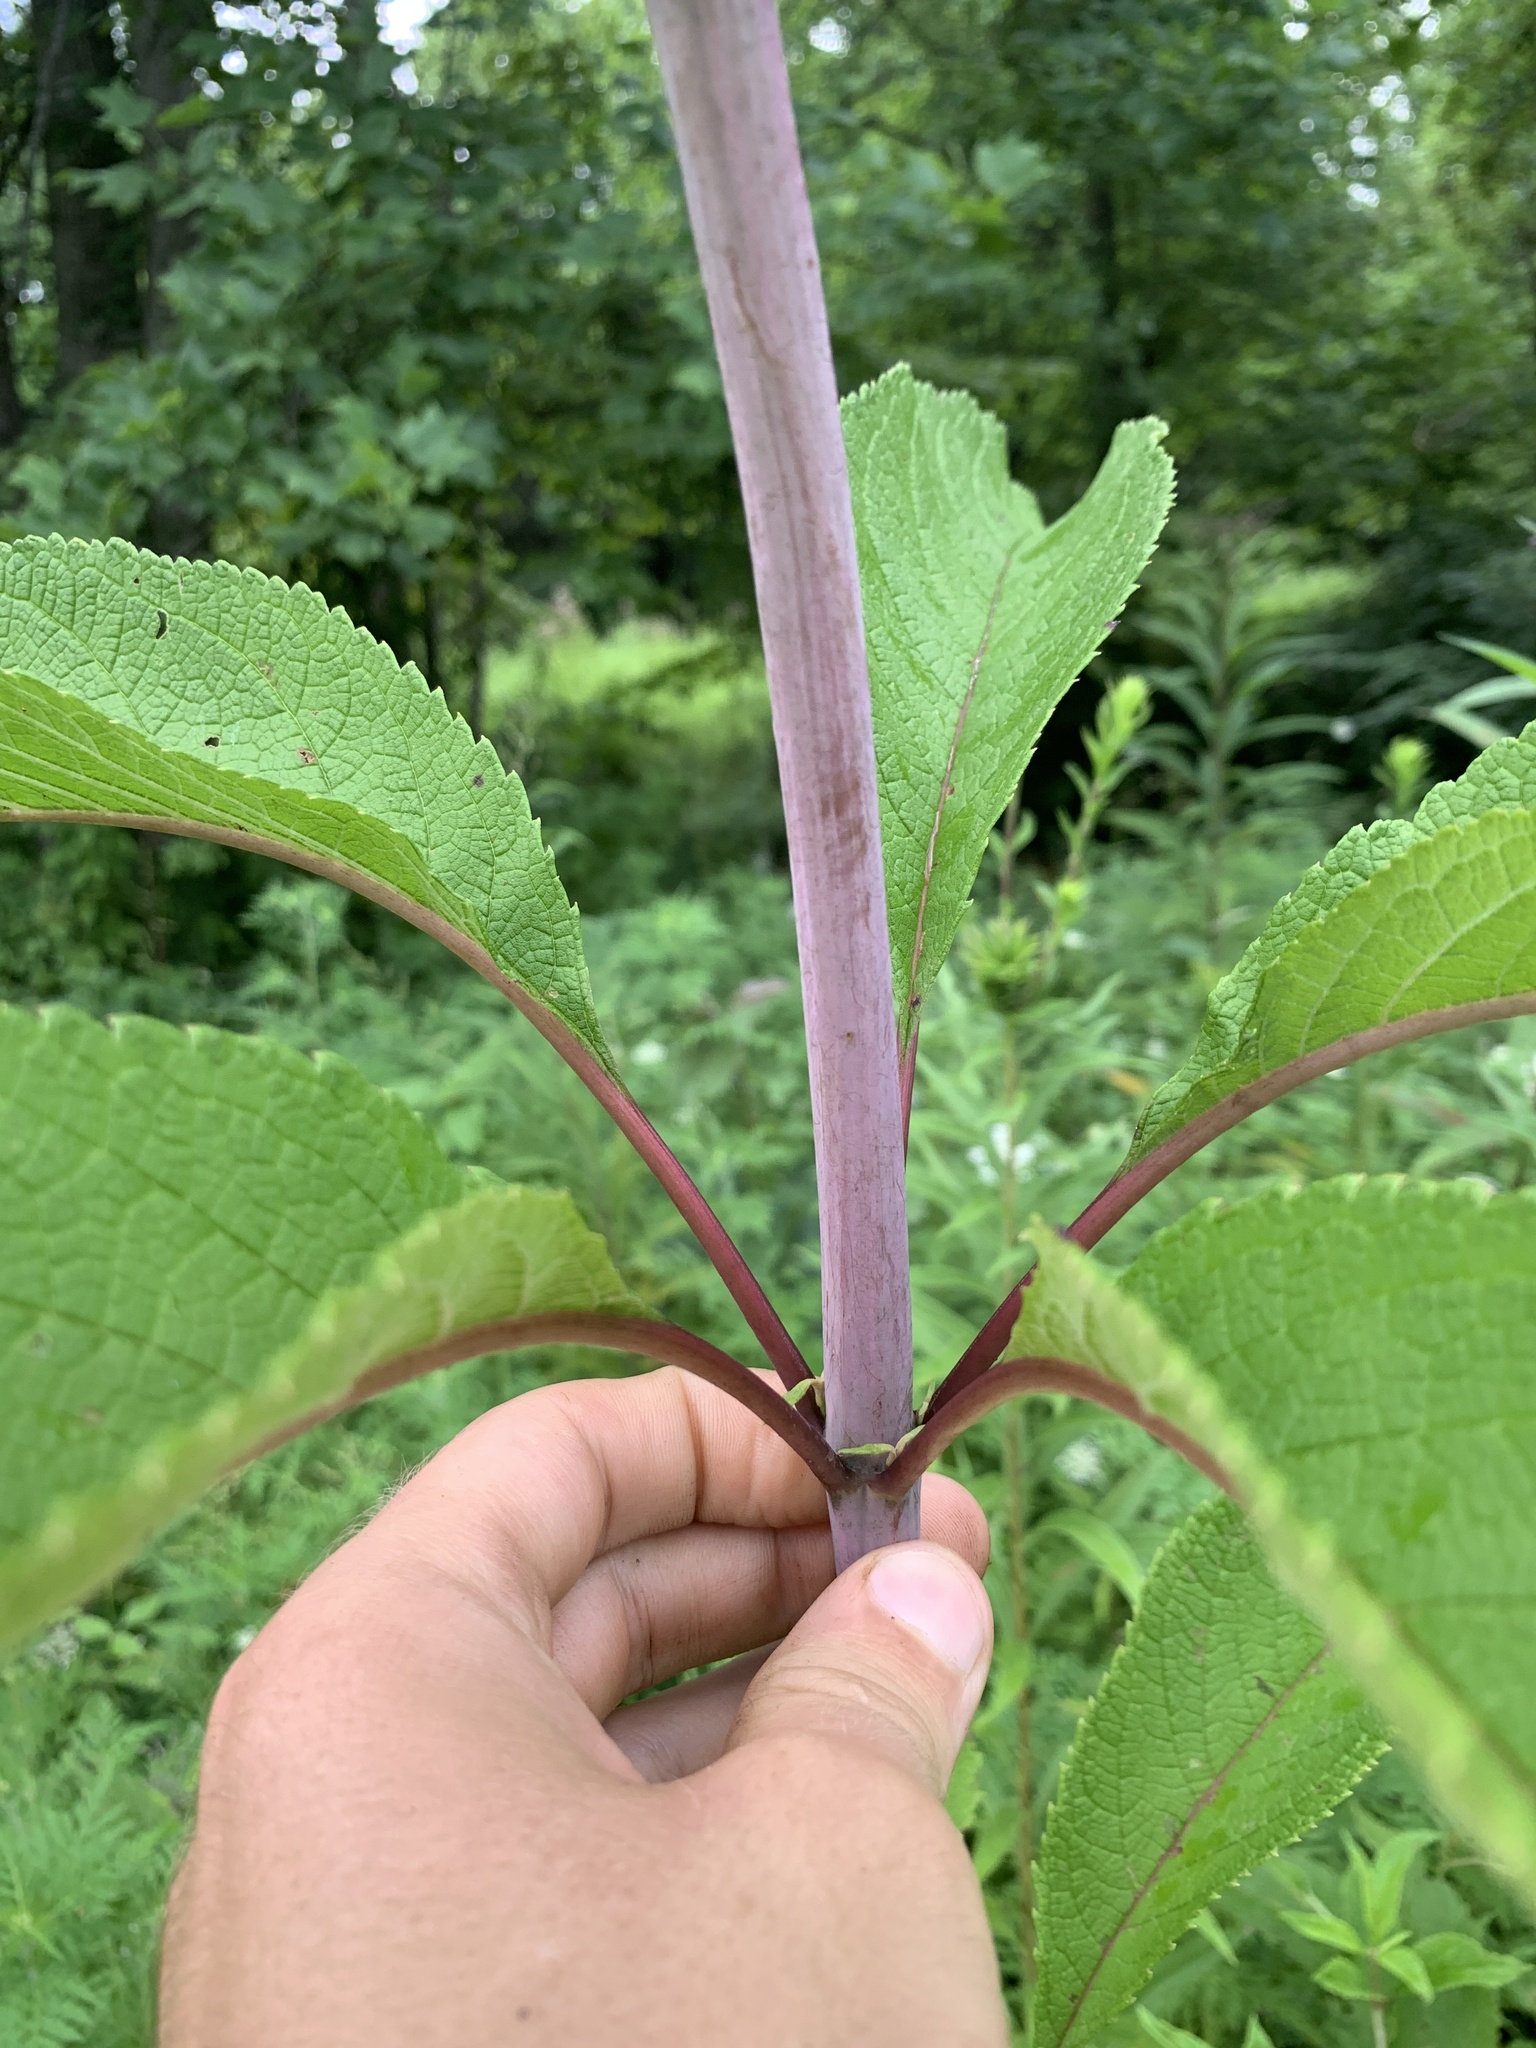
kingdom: Plantae
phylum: Tracheophyta
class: Magnoliopsida
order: Asterales
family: Asteraceae
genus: Eutrochium
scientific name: Eutrochium fistulosum
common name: Trumpetweed
